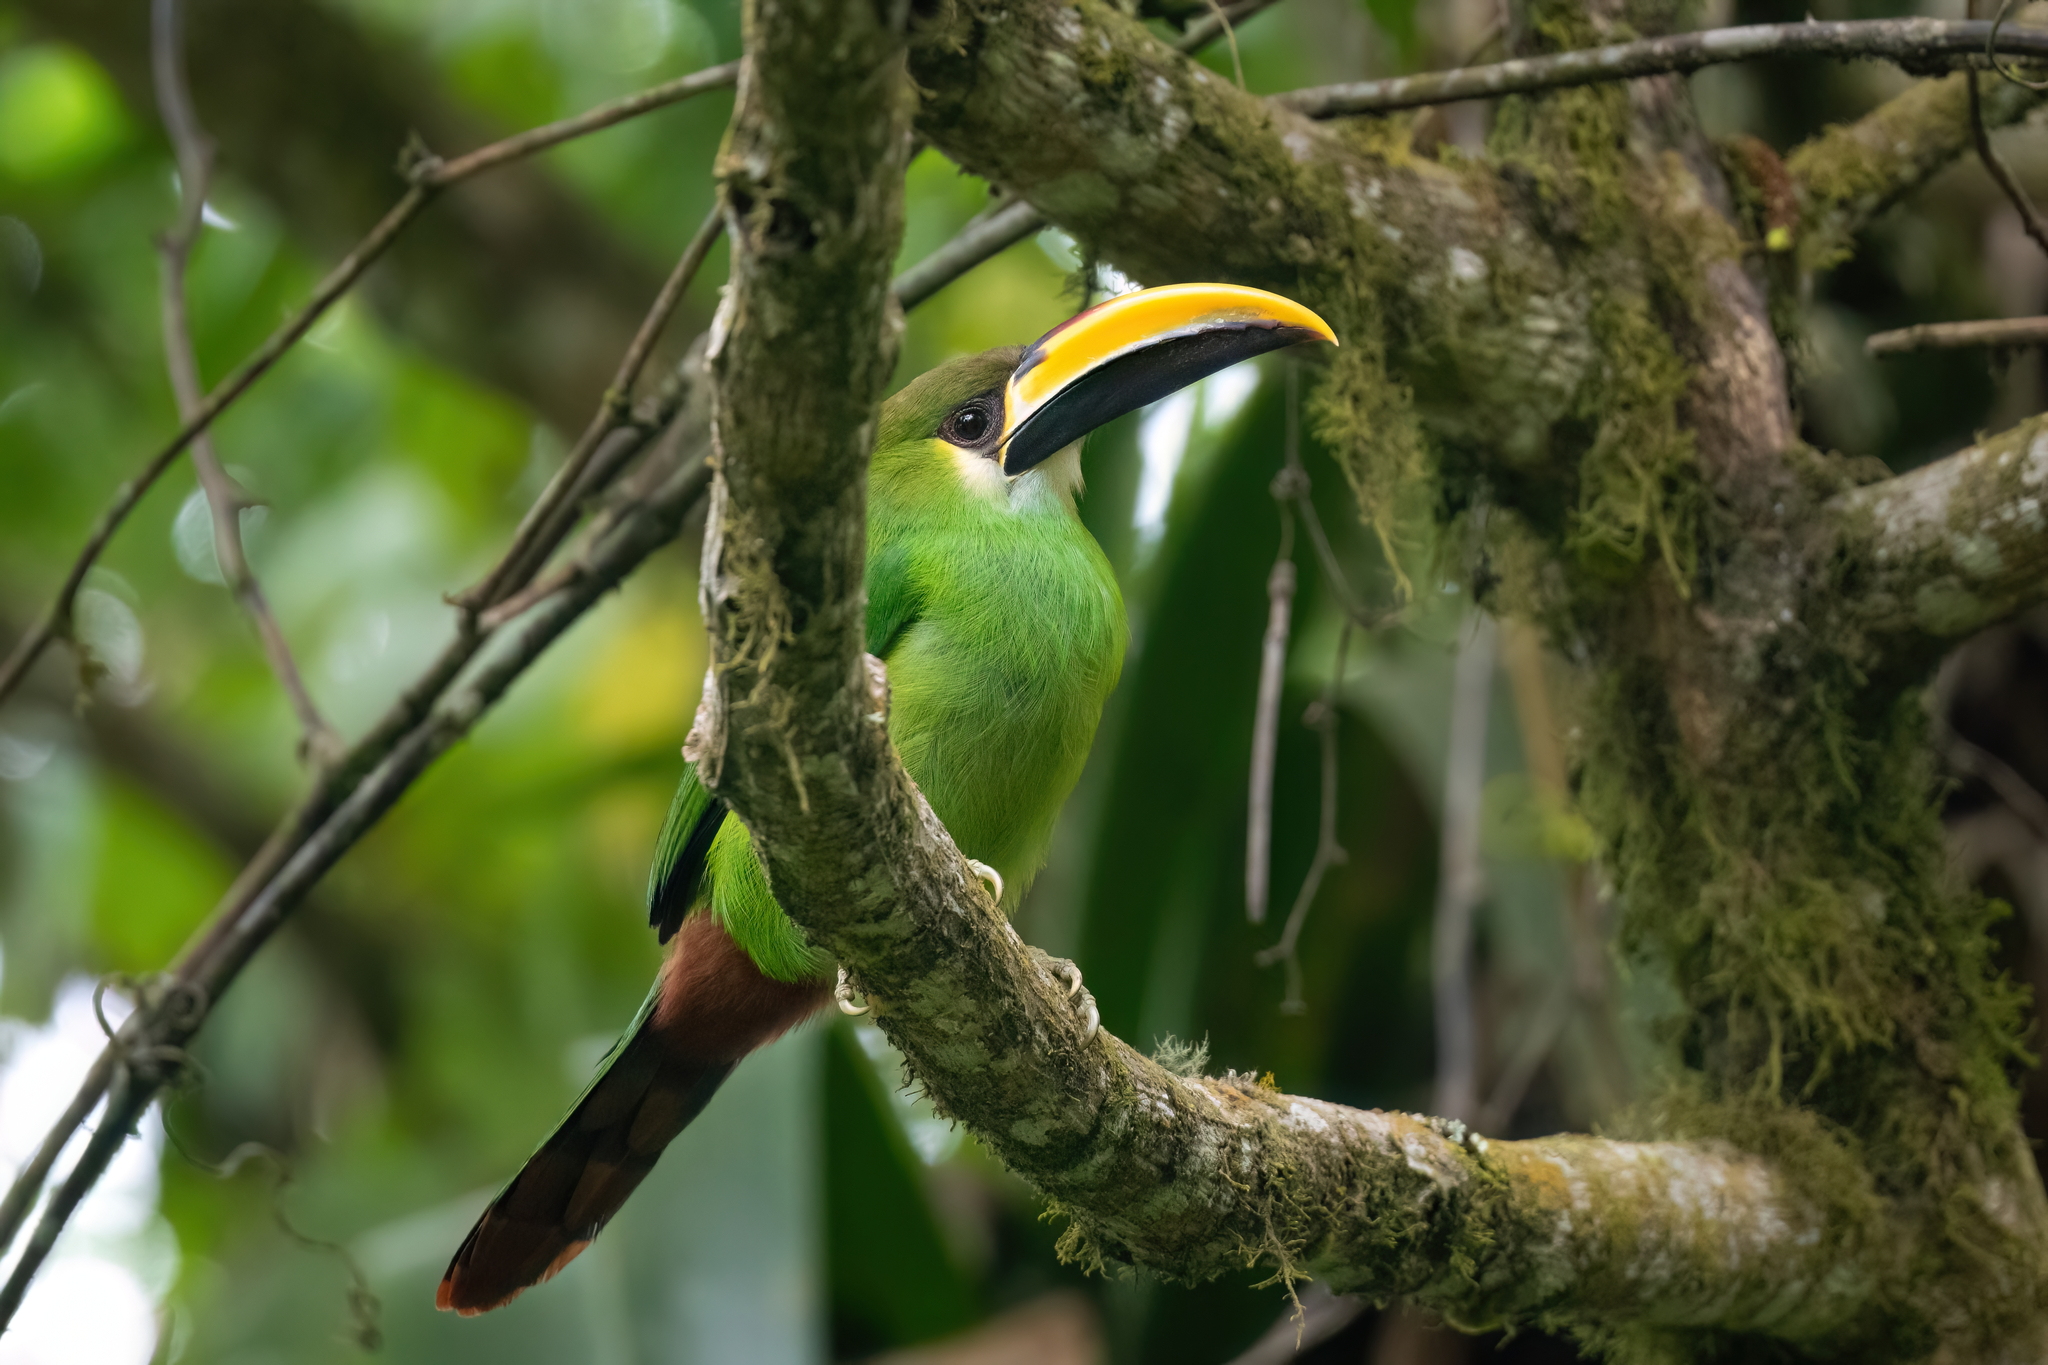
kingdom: Animalia
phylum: Chordata
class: Aves
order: Piciformes
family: Ramphastidae
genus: Aulacorhynchus
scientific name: Aulacorhynchus prasinus
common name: Emerald toucanet
